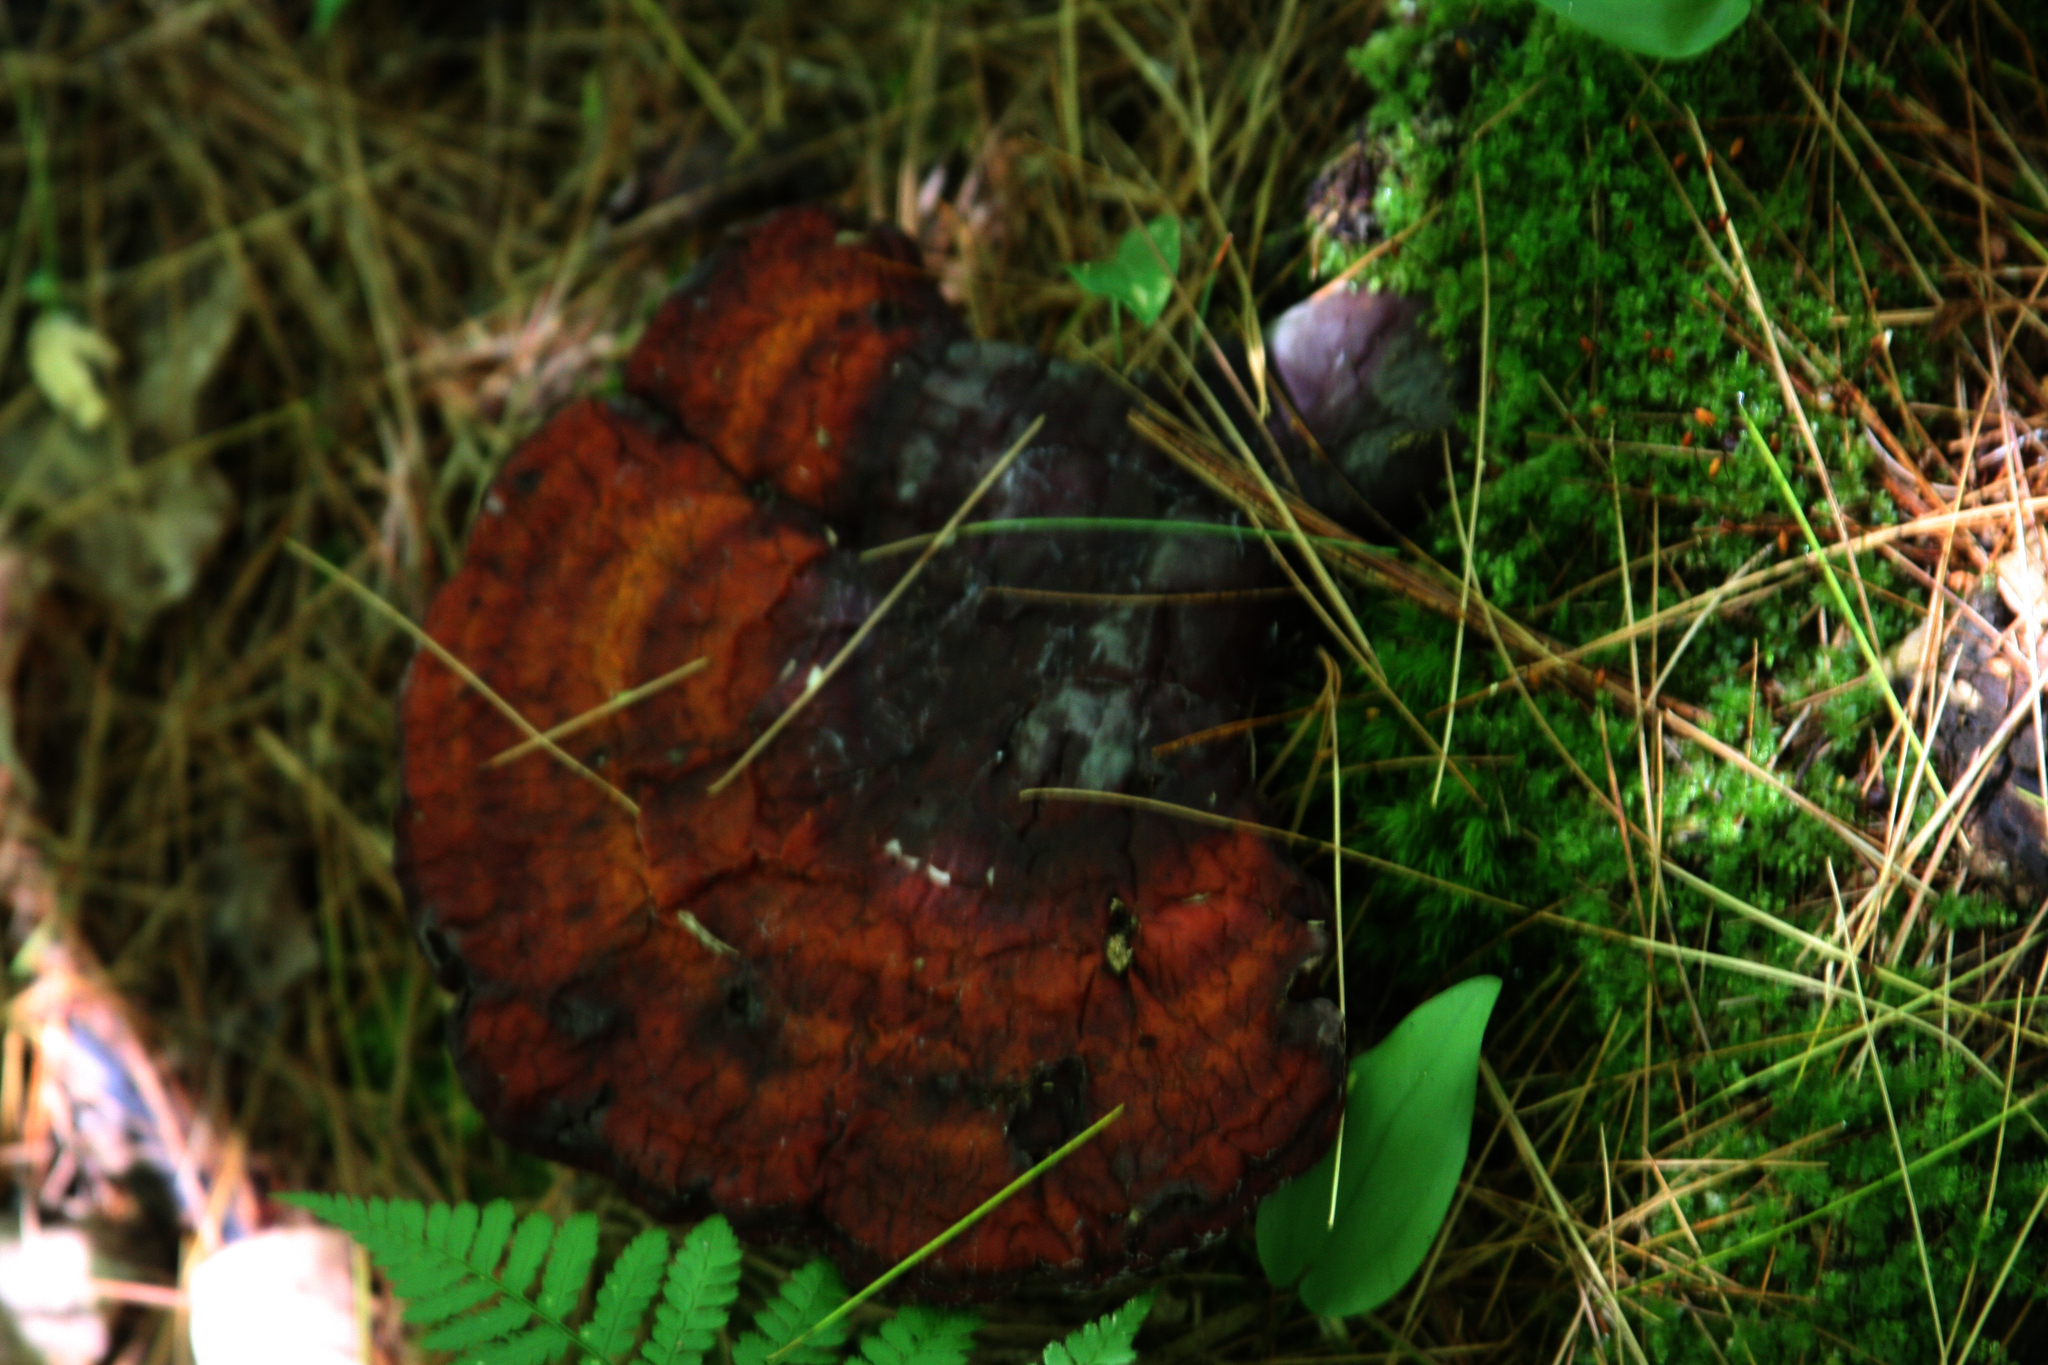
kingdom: Fungi
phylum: Basidiomycota
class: Agaricomycetes
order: Polyporales
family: Polyporaceae
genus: Ganoderma
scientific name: Ganoderma tsugae
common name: Hemlock varnish shelf
